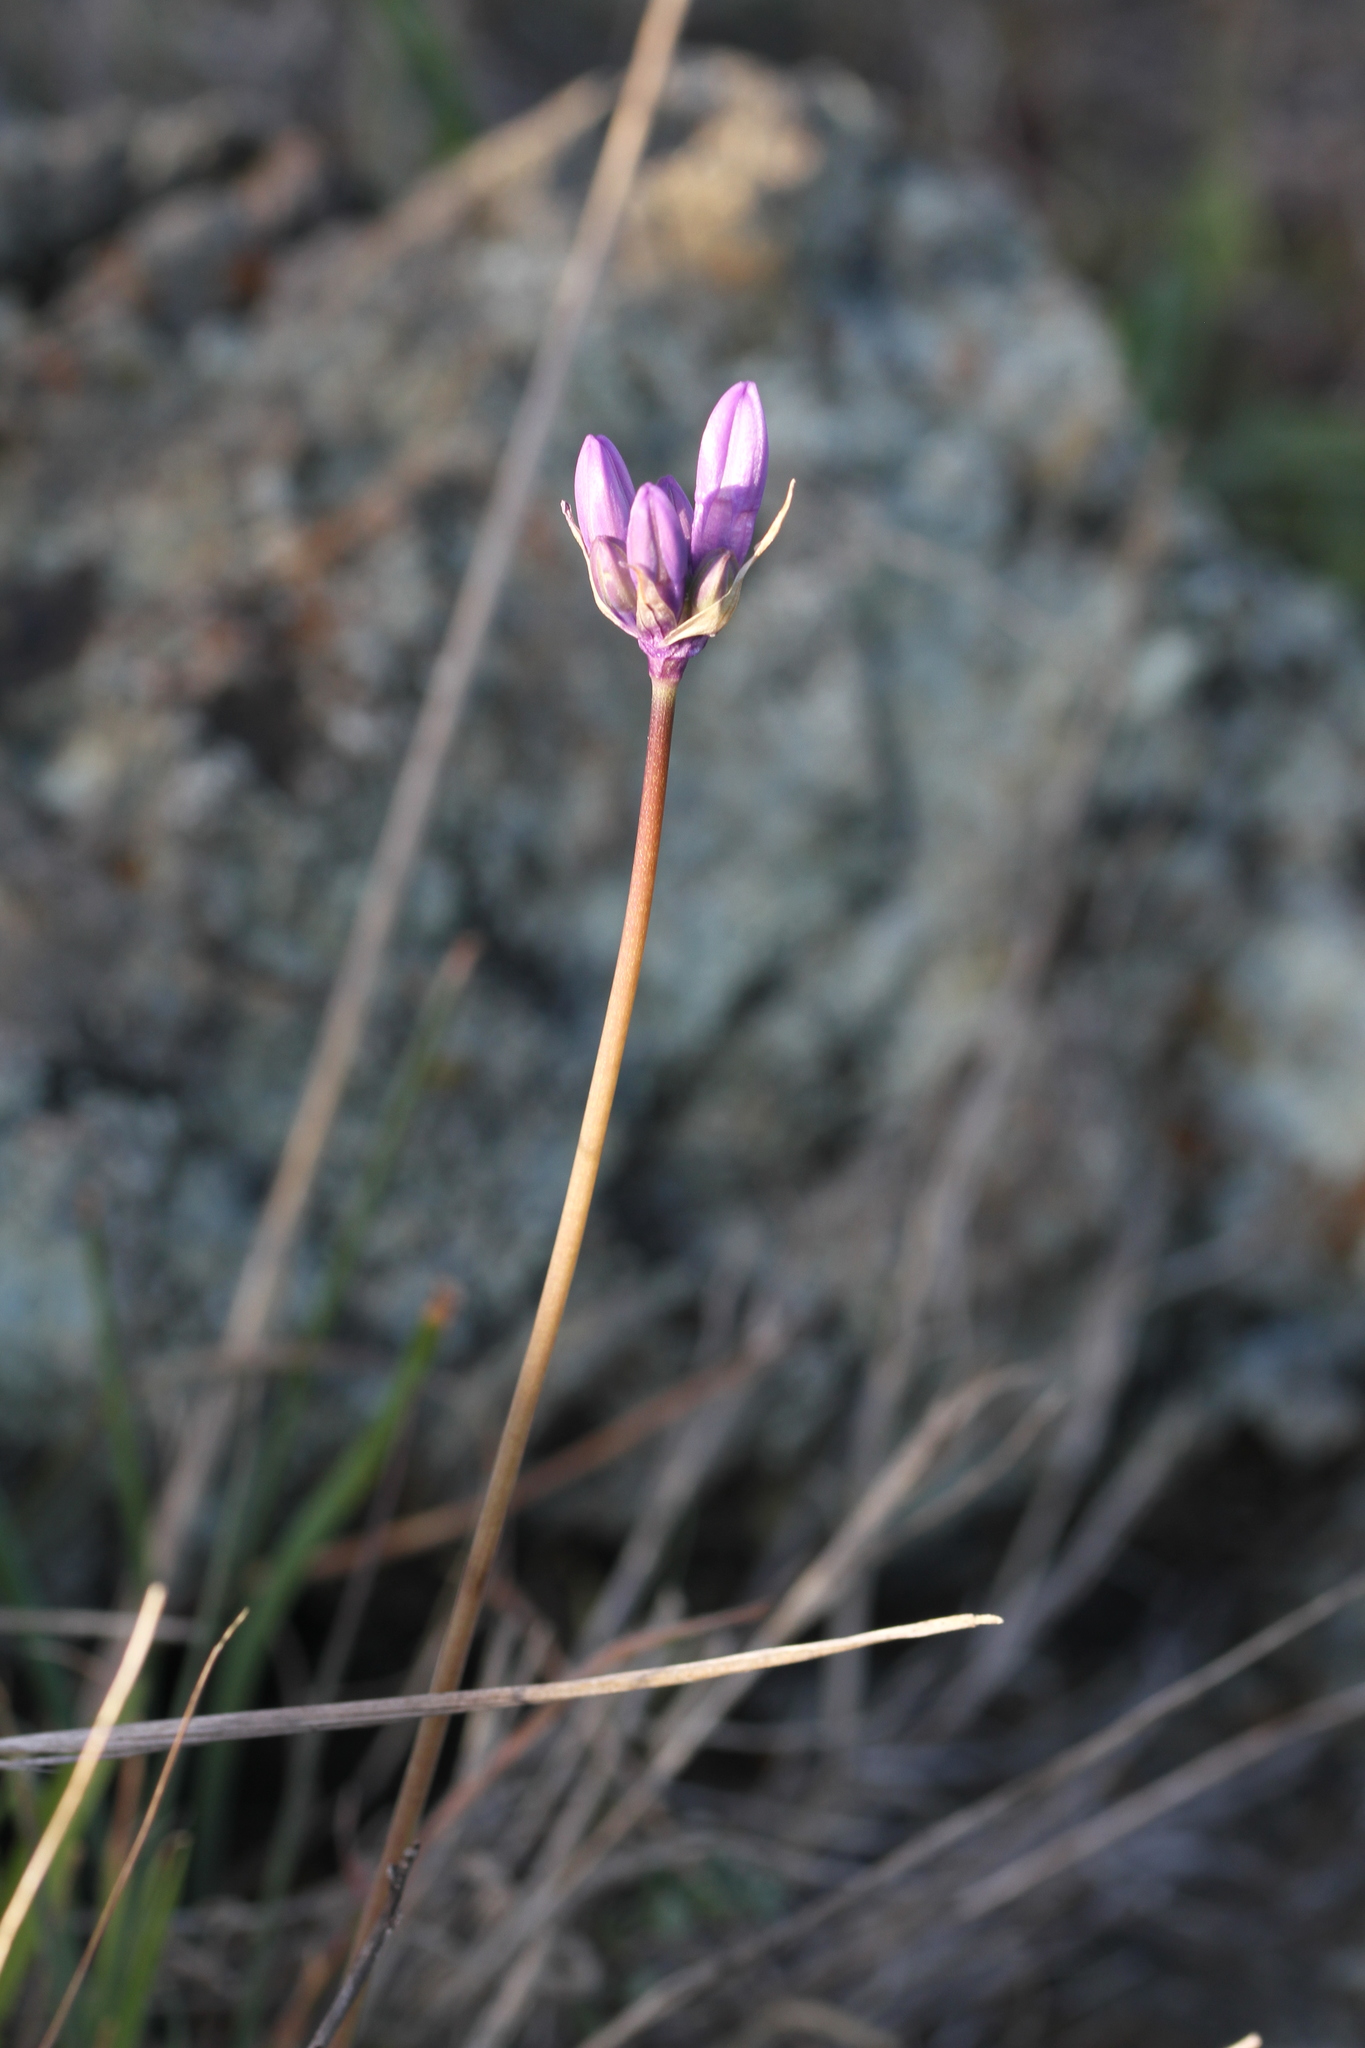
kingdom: Plantae
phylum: Tracheophyta
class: Liliopsida
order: Asparagales
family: Asparagaceae
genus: Dipterostemon
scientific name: Dipterostemon capitatus
